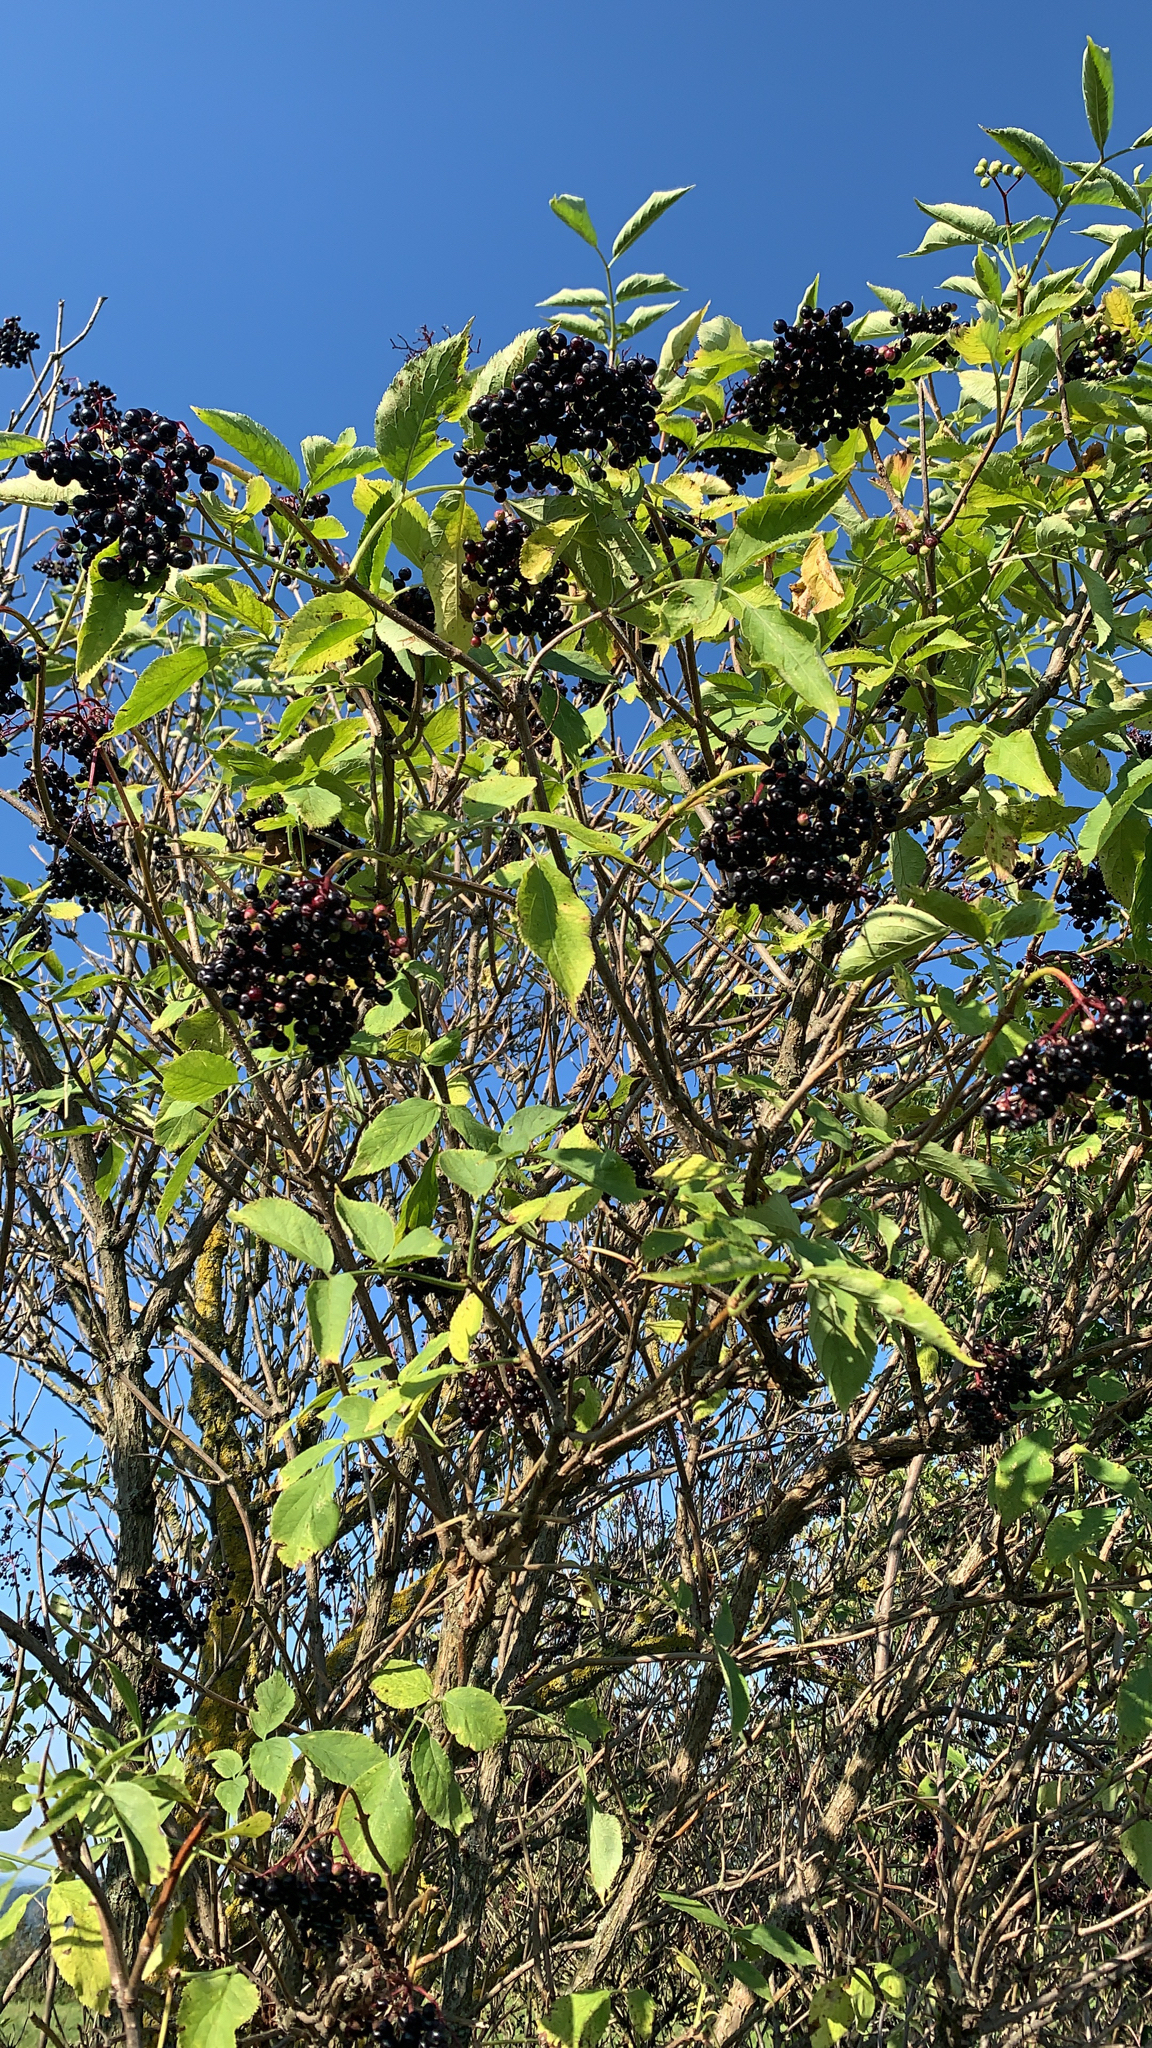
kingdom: Plantae
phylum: Tracheophyta
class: Magnoliopsida
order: Dipsacales
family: Viburnaceae
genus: Sambucus
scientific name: Sambucus nigra
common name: Elder
